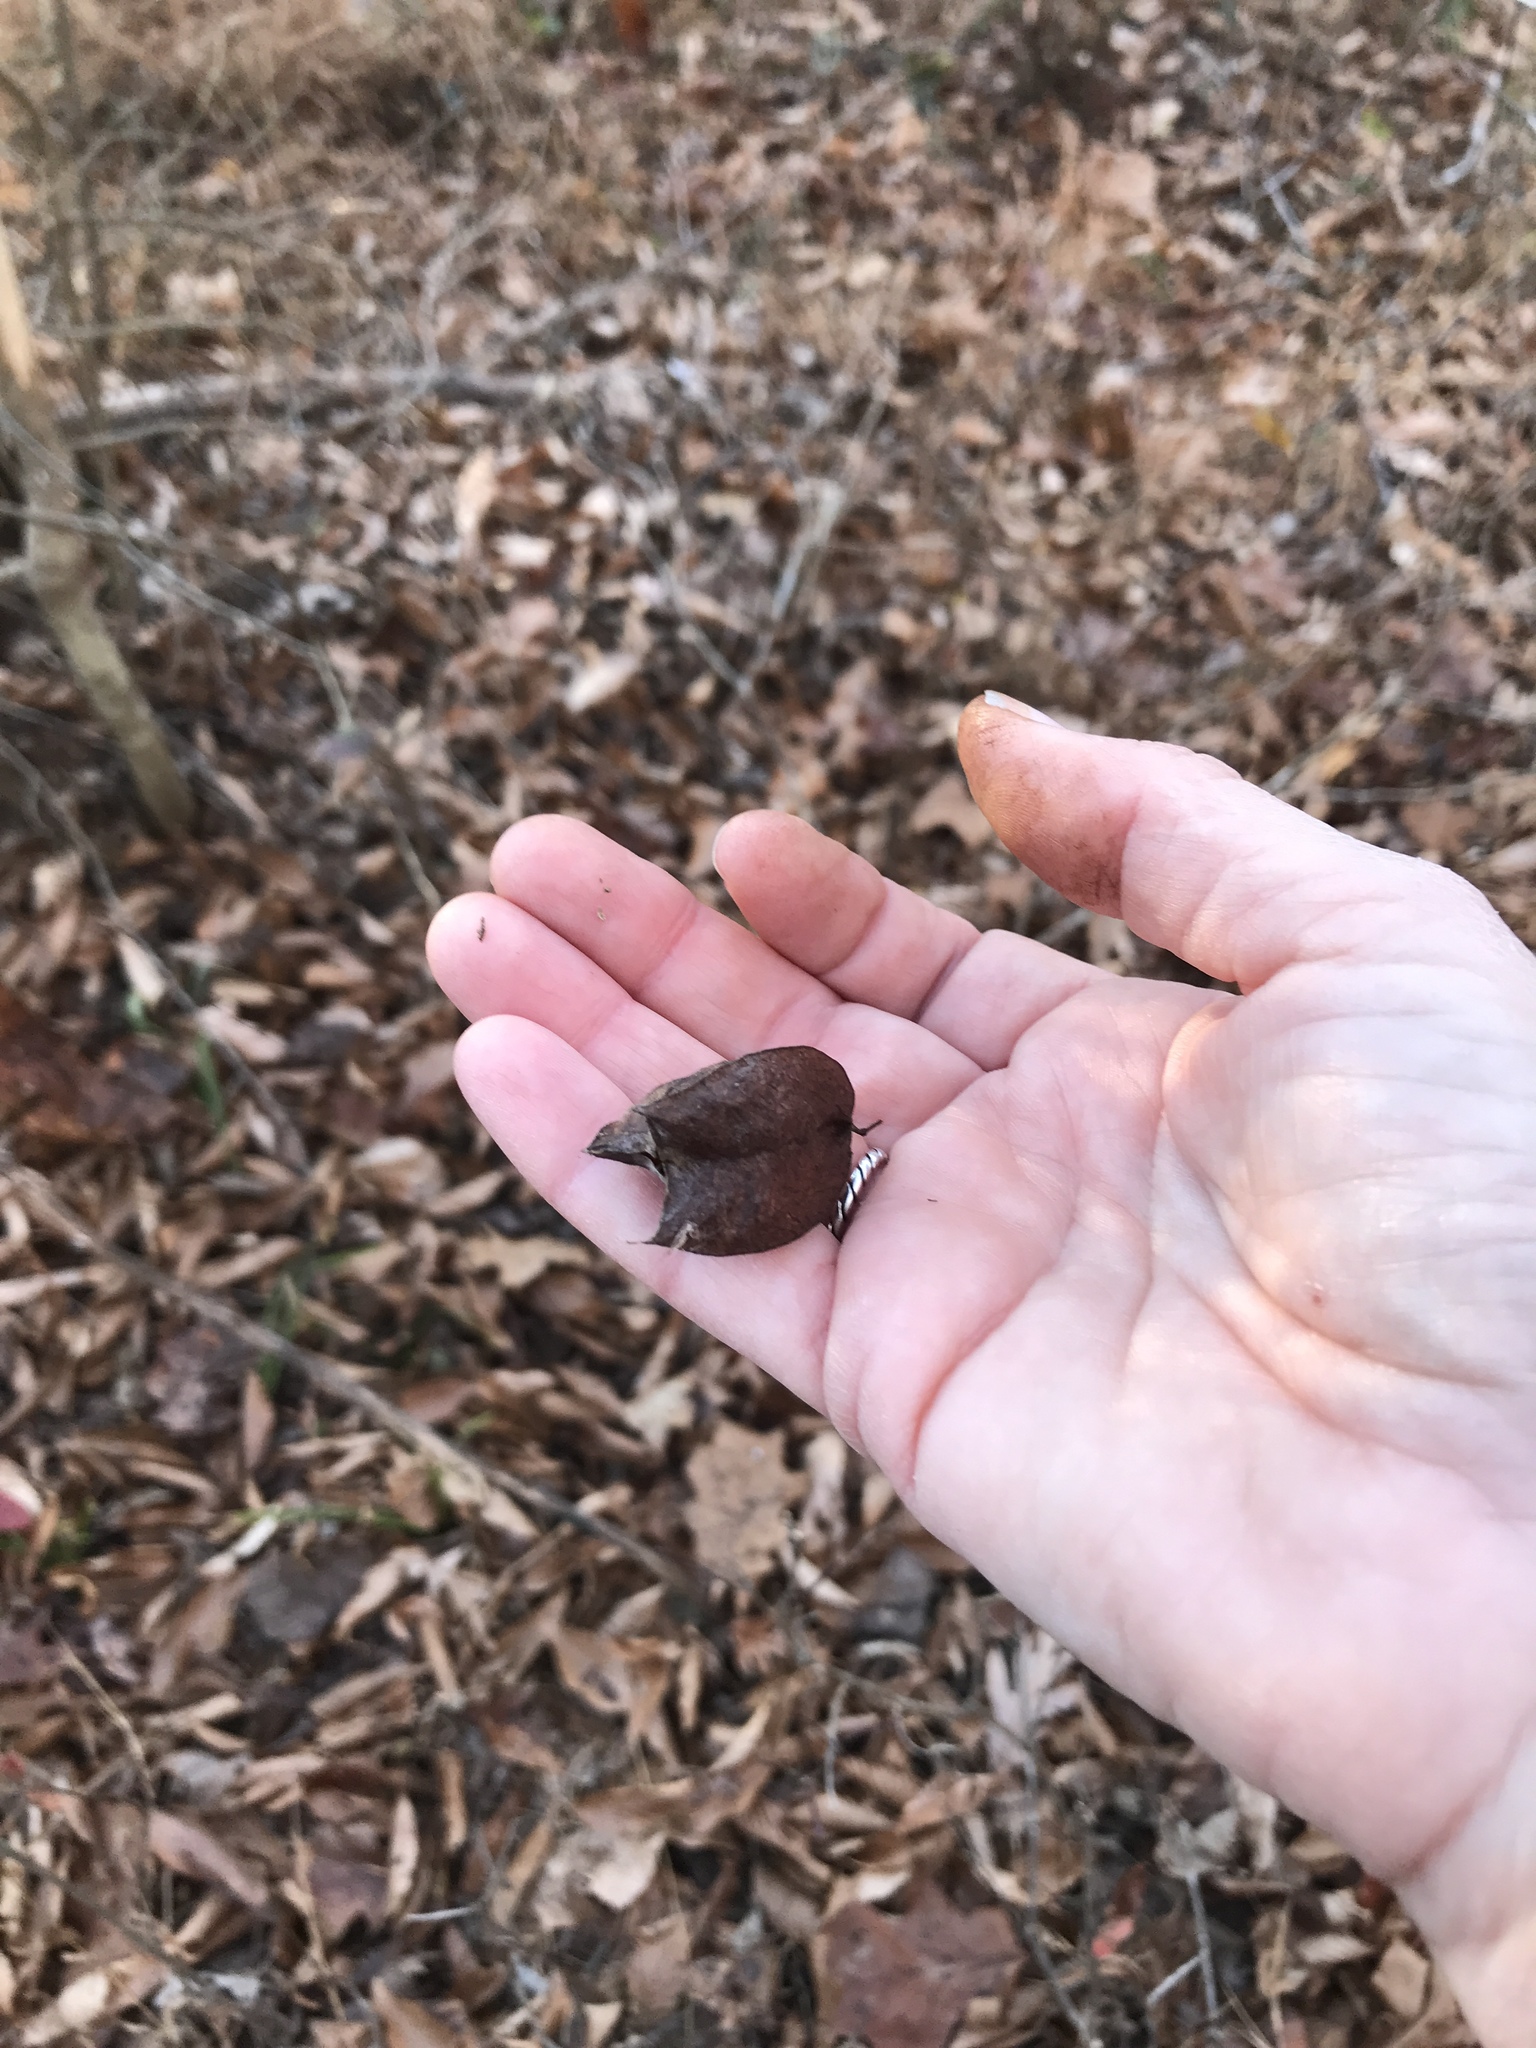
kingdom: Plantae
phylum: Tracheophyta
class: Magnoliopsida
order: Crossosomatales
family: Staphyleaceae
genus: Staphylea
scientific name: Staphylea trifolia
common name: American bladdernut
